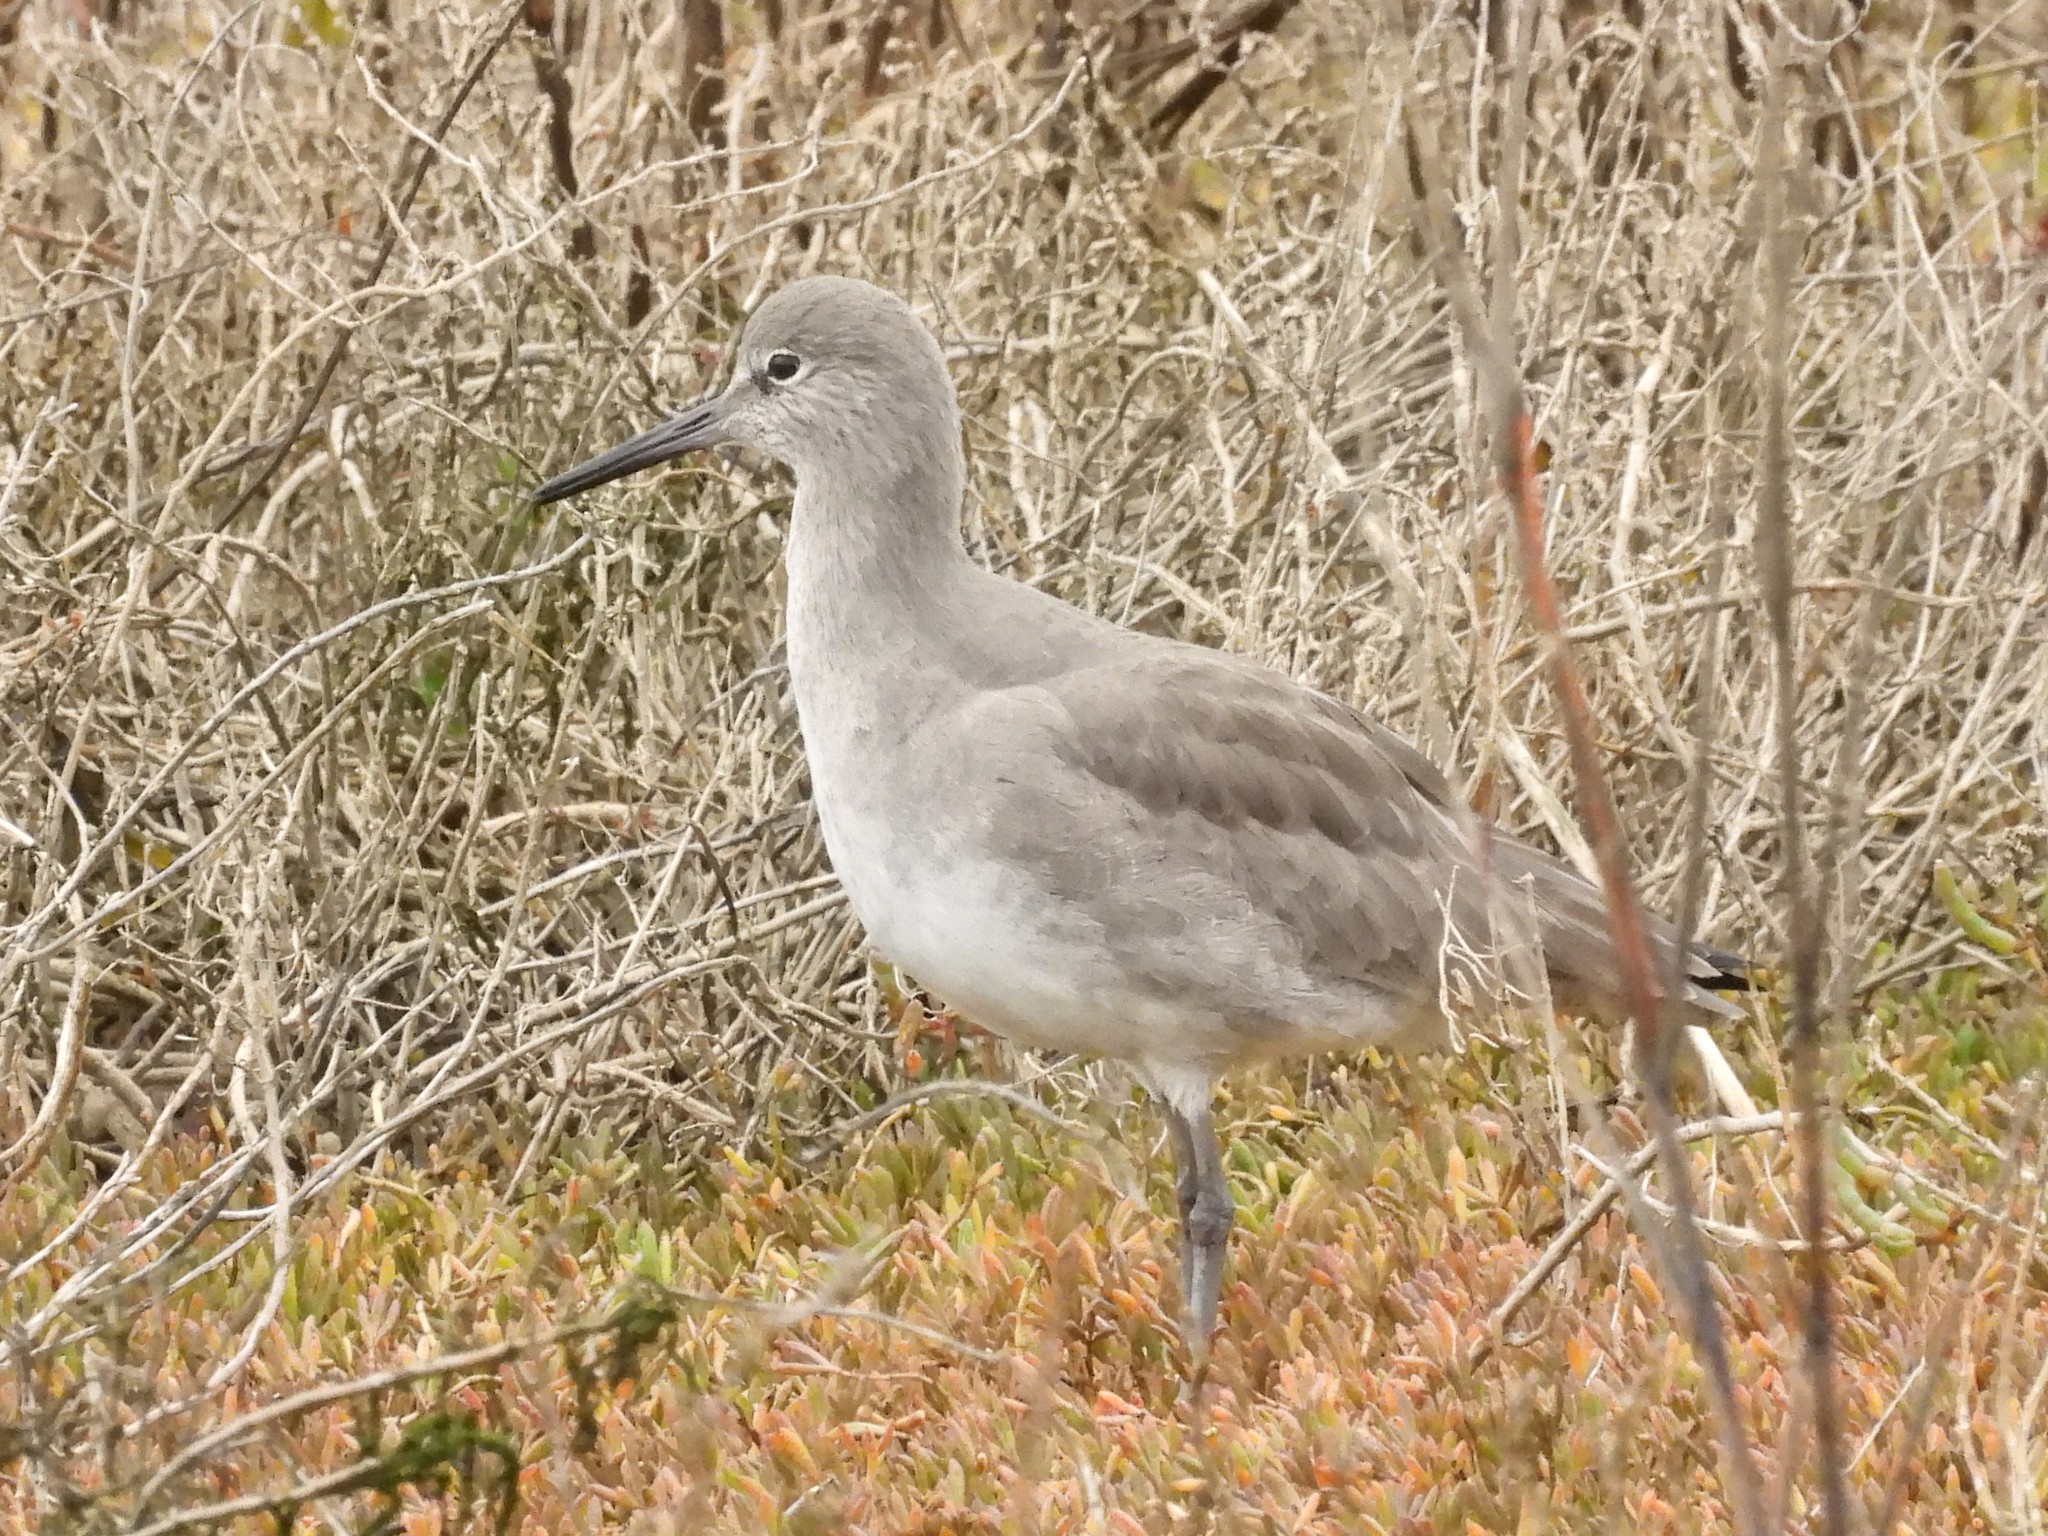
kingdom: Animalia
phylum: Chordata
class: Aves
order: Charadriiformes
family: Scolopacidae
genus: Tringa
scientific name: Tringa semipalmata
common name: Willet
